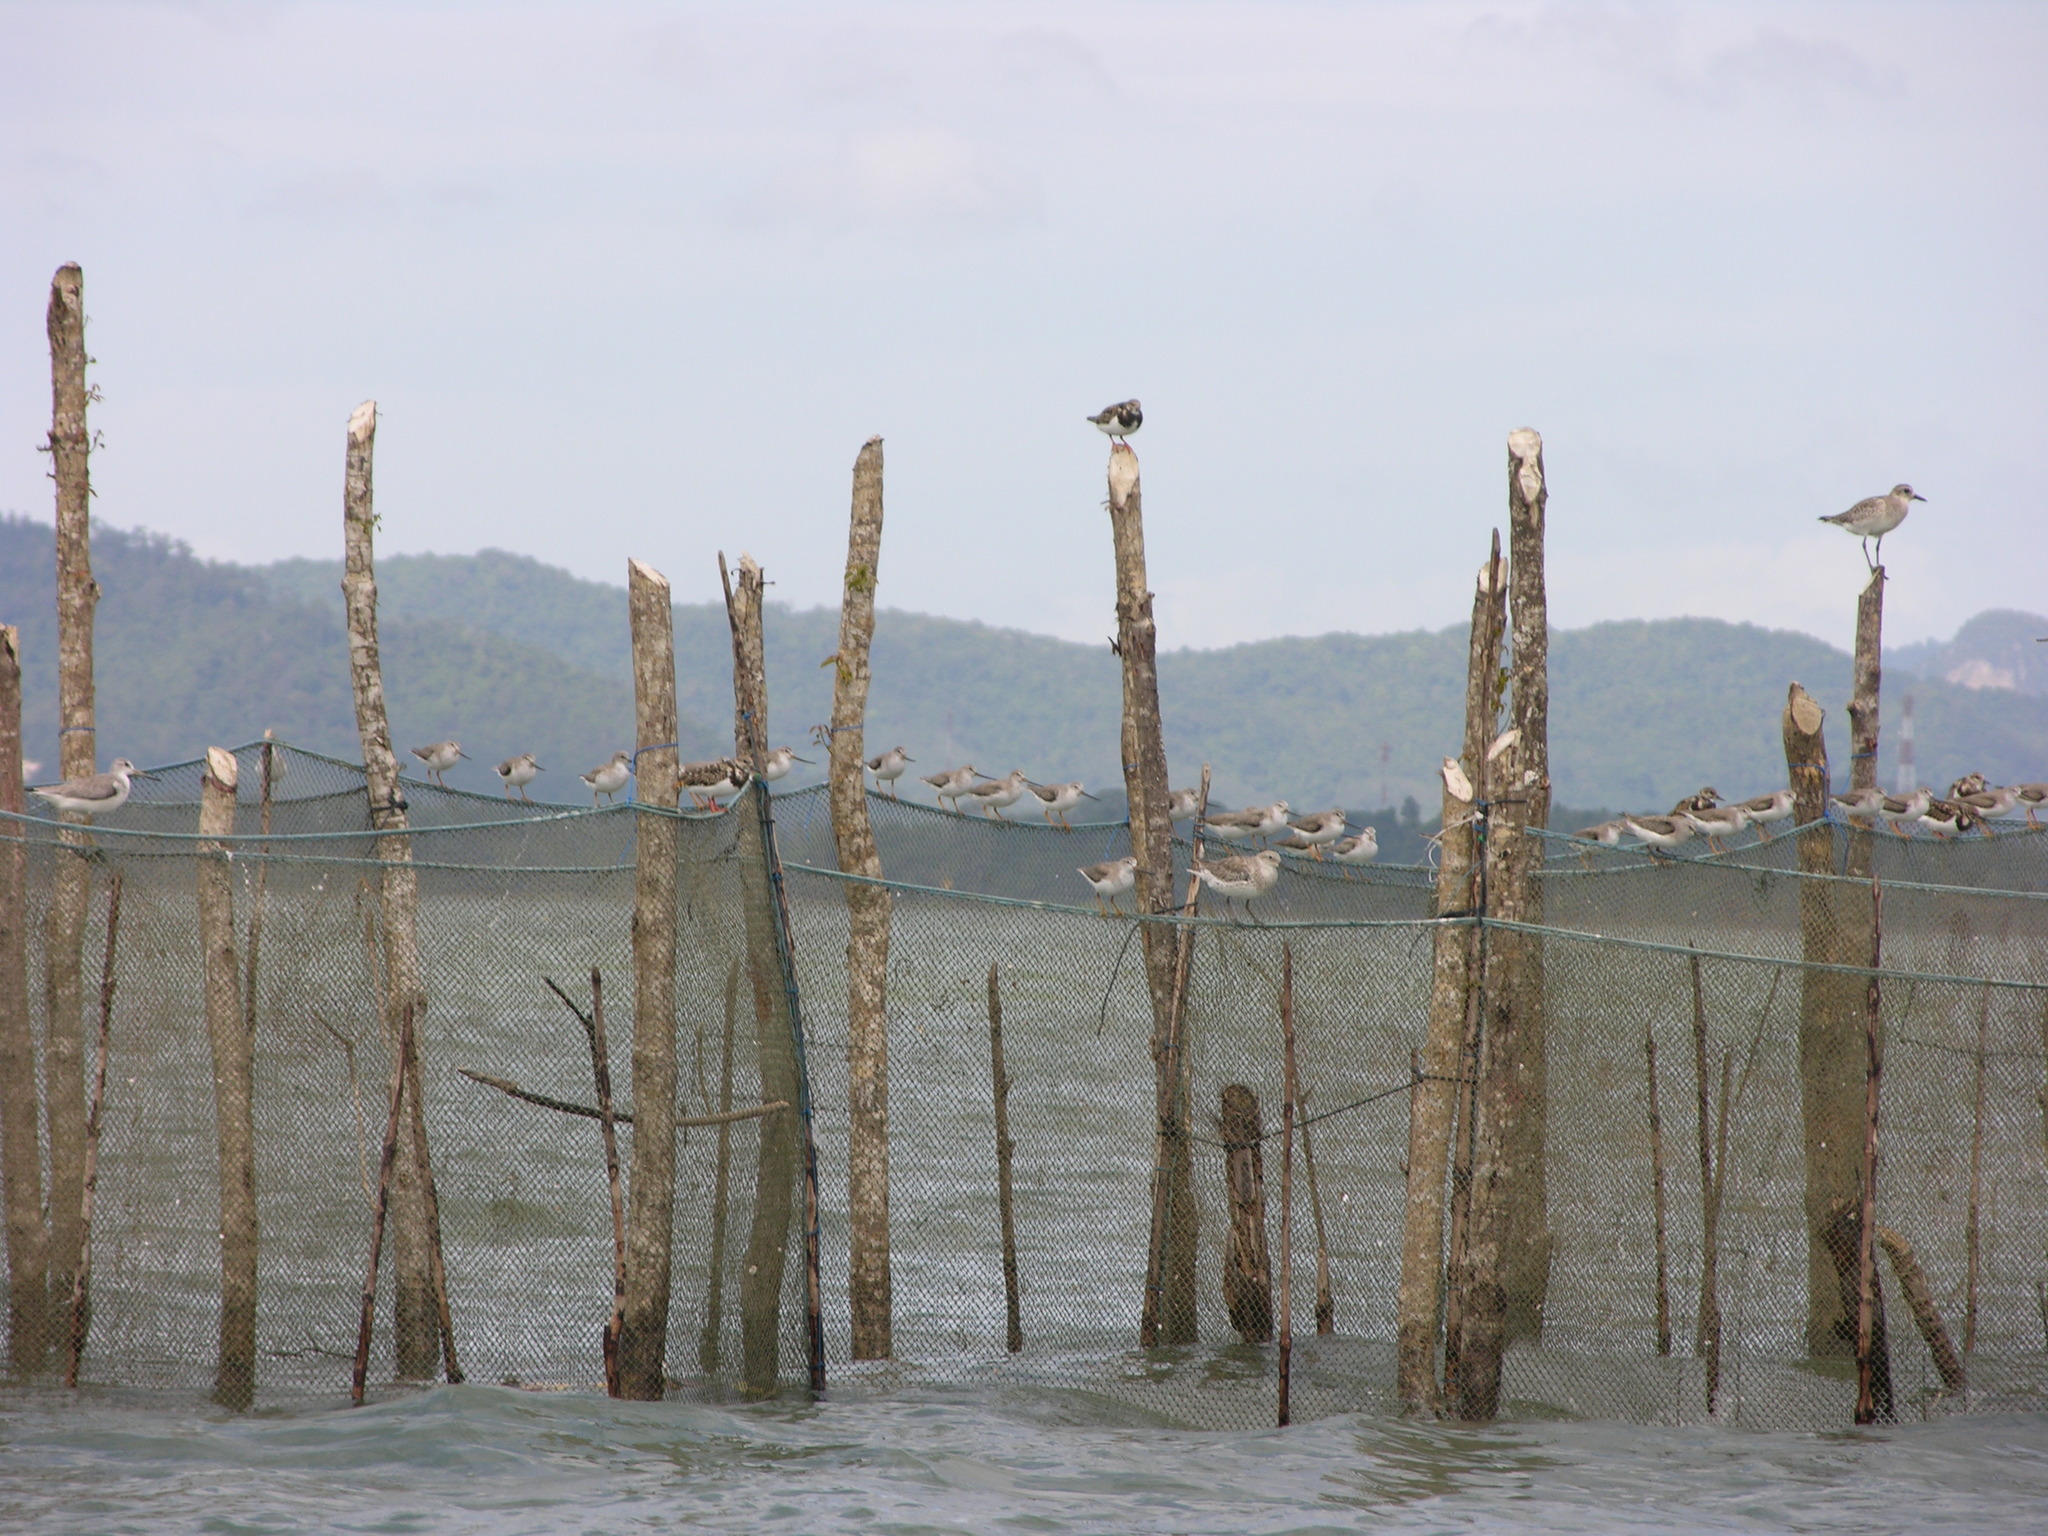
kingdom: Animalia
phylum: Chordata
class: Aves
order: Charadriiformes
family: Scolopacidae
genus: Xenus
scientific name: Xenus cinereus
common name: Terek sandpiper
